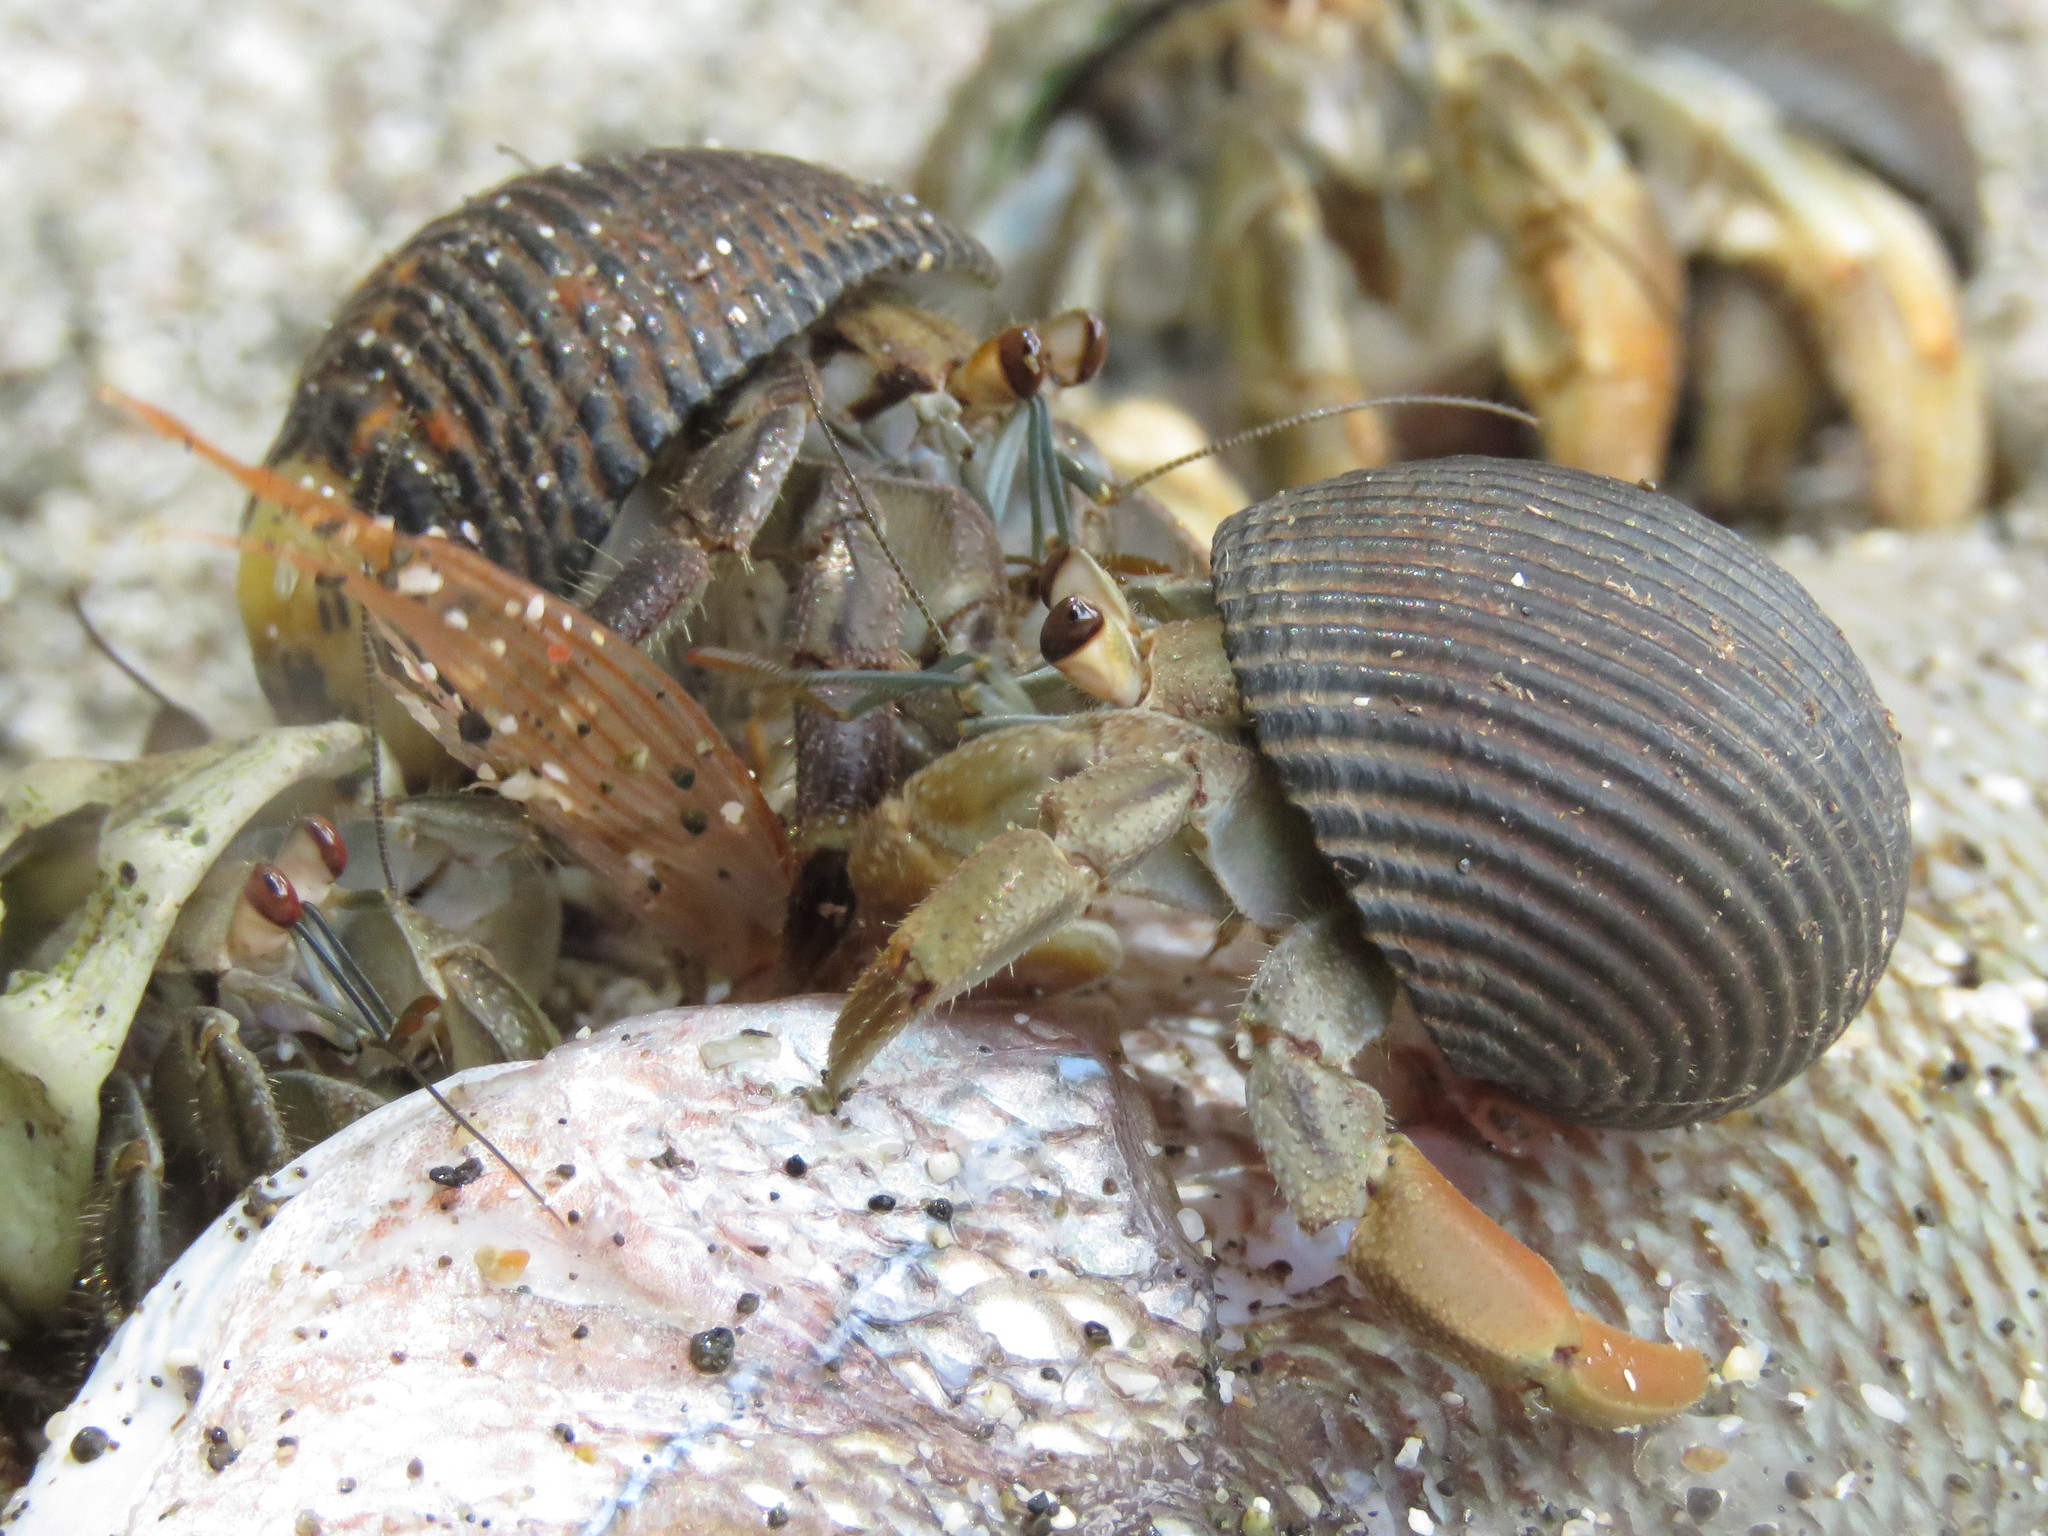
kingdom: Animalia
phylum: Arthropoda
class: Malacostraca
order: Decapoda
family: Coenobitidae
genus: Coenobita
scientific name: Coenobita compressus
